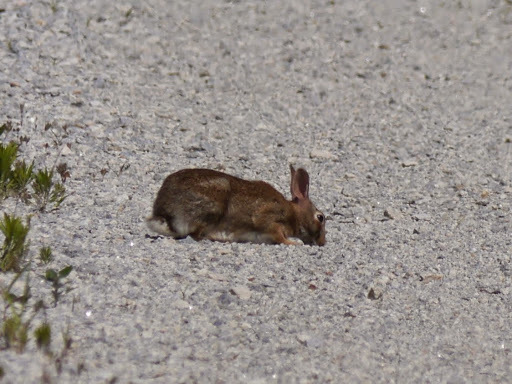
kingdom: Animalia
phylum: Chordata
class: Mammalia
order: Lagomorpha
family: Leporidae
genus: Sylvilagus
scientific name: Sylvilagus floridanus
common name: Eastern cottontail
